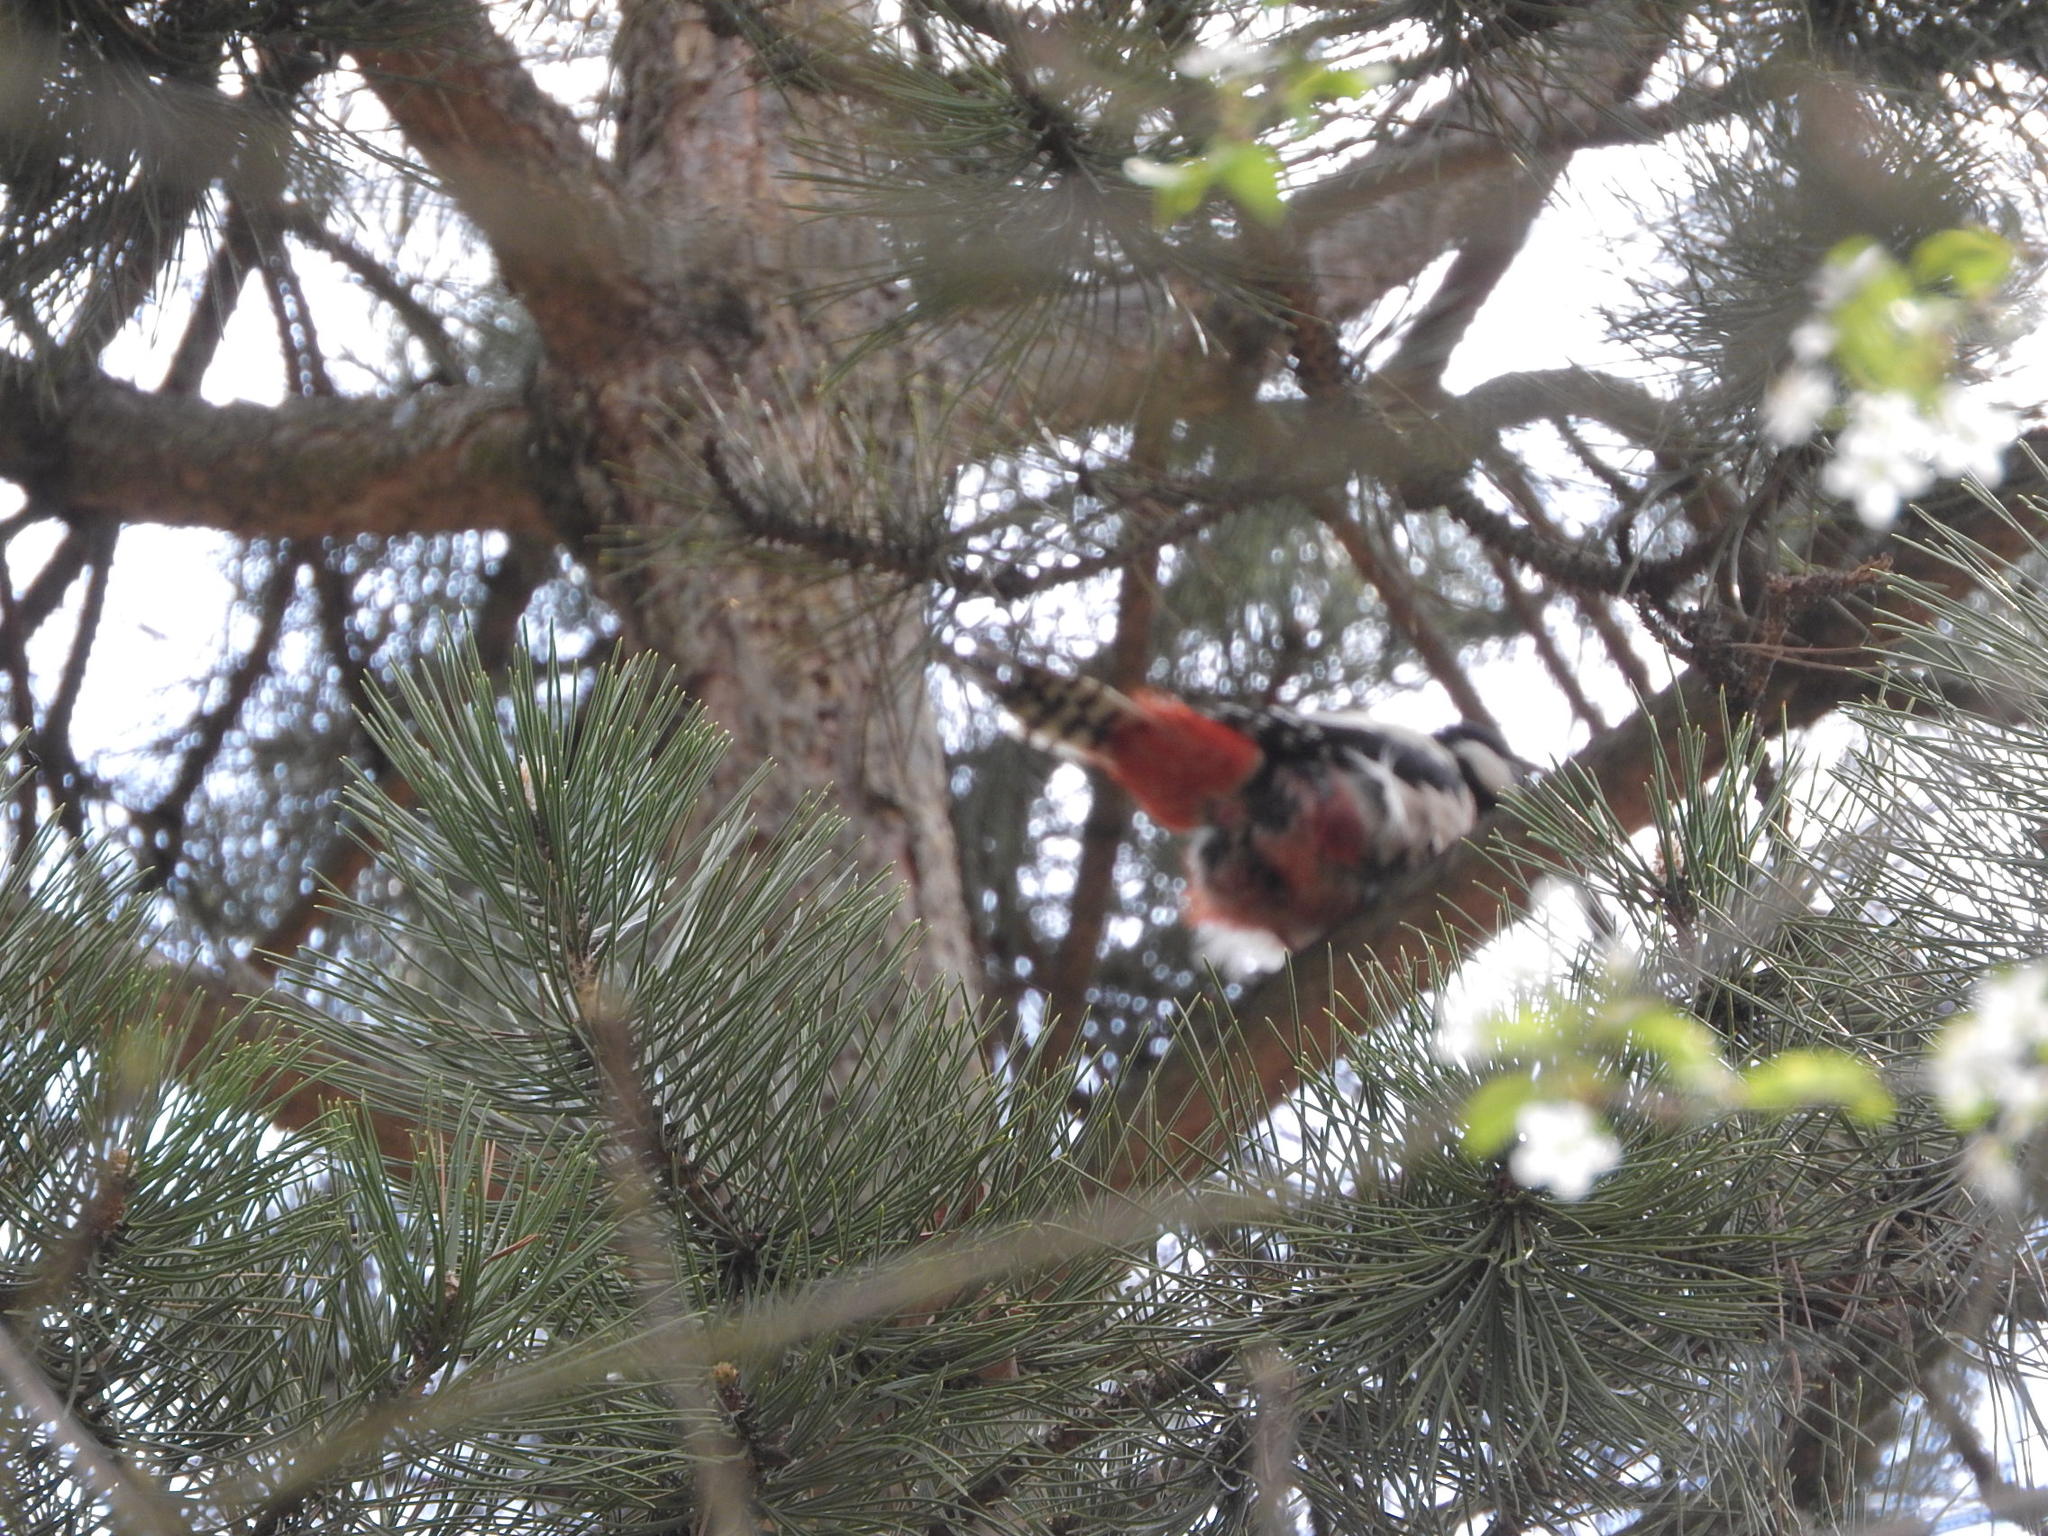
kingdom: Animalia
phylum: Chordata
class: Aves
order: Piciformes
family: Picidae
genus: Dendrocopos
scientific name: Dendrocopos major
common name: Great spotted woodpecker
